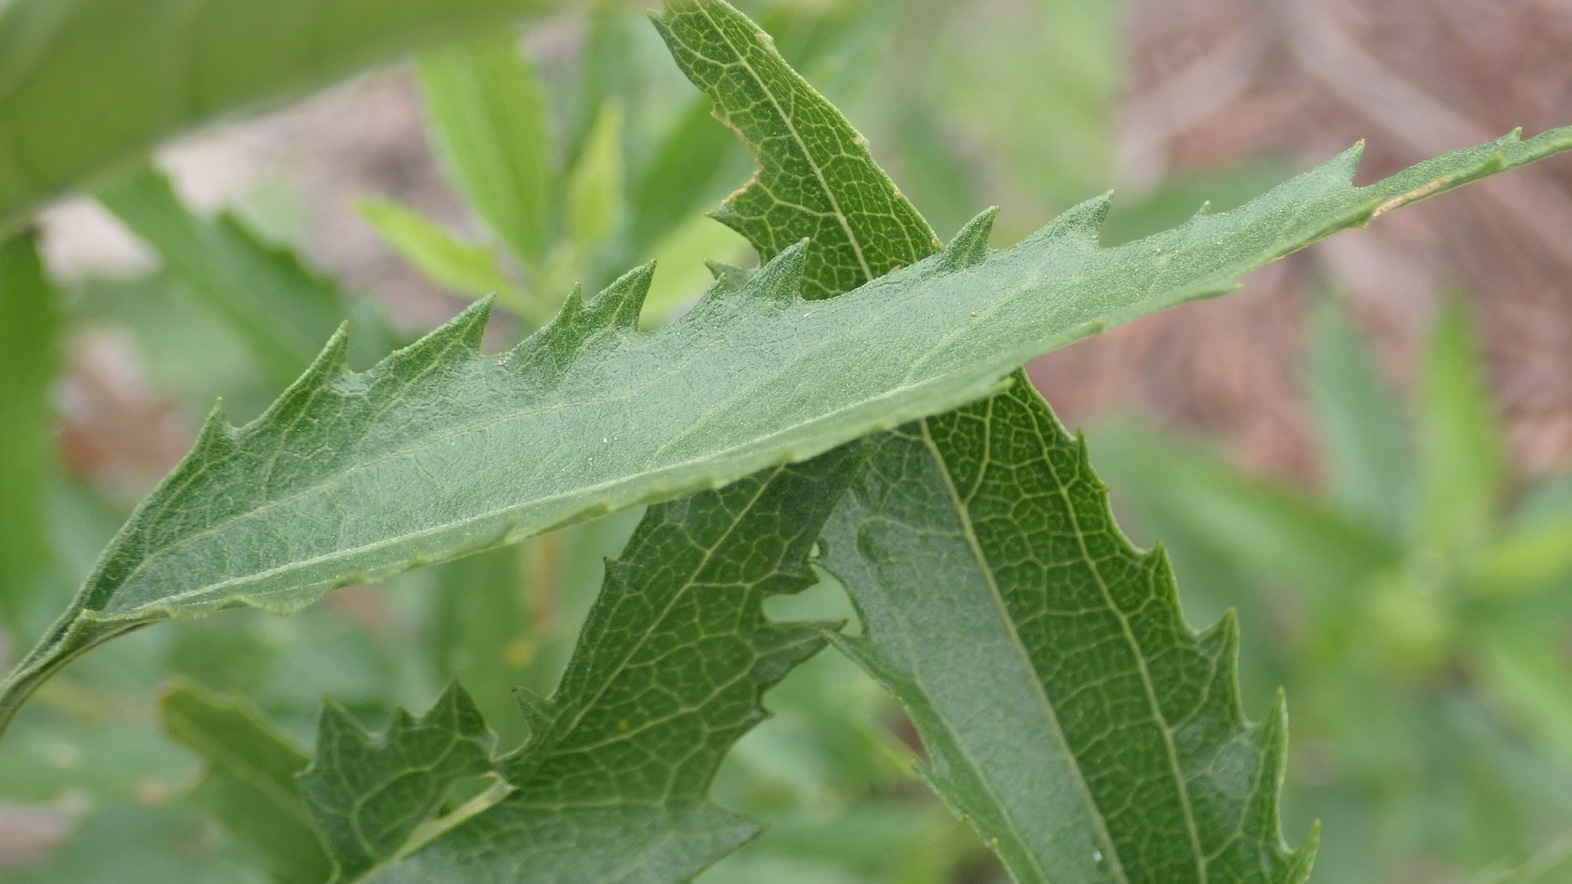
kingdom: Plantae
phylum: Tracheophyta
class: Magnoliopsida
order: Asterales
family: Asteraceae
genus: Nidorella
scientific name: Nidorella ivifolia
